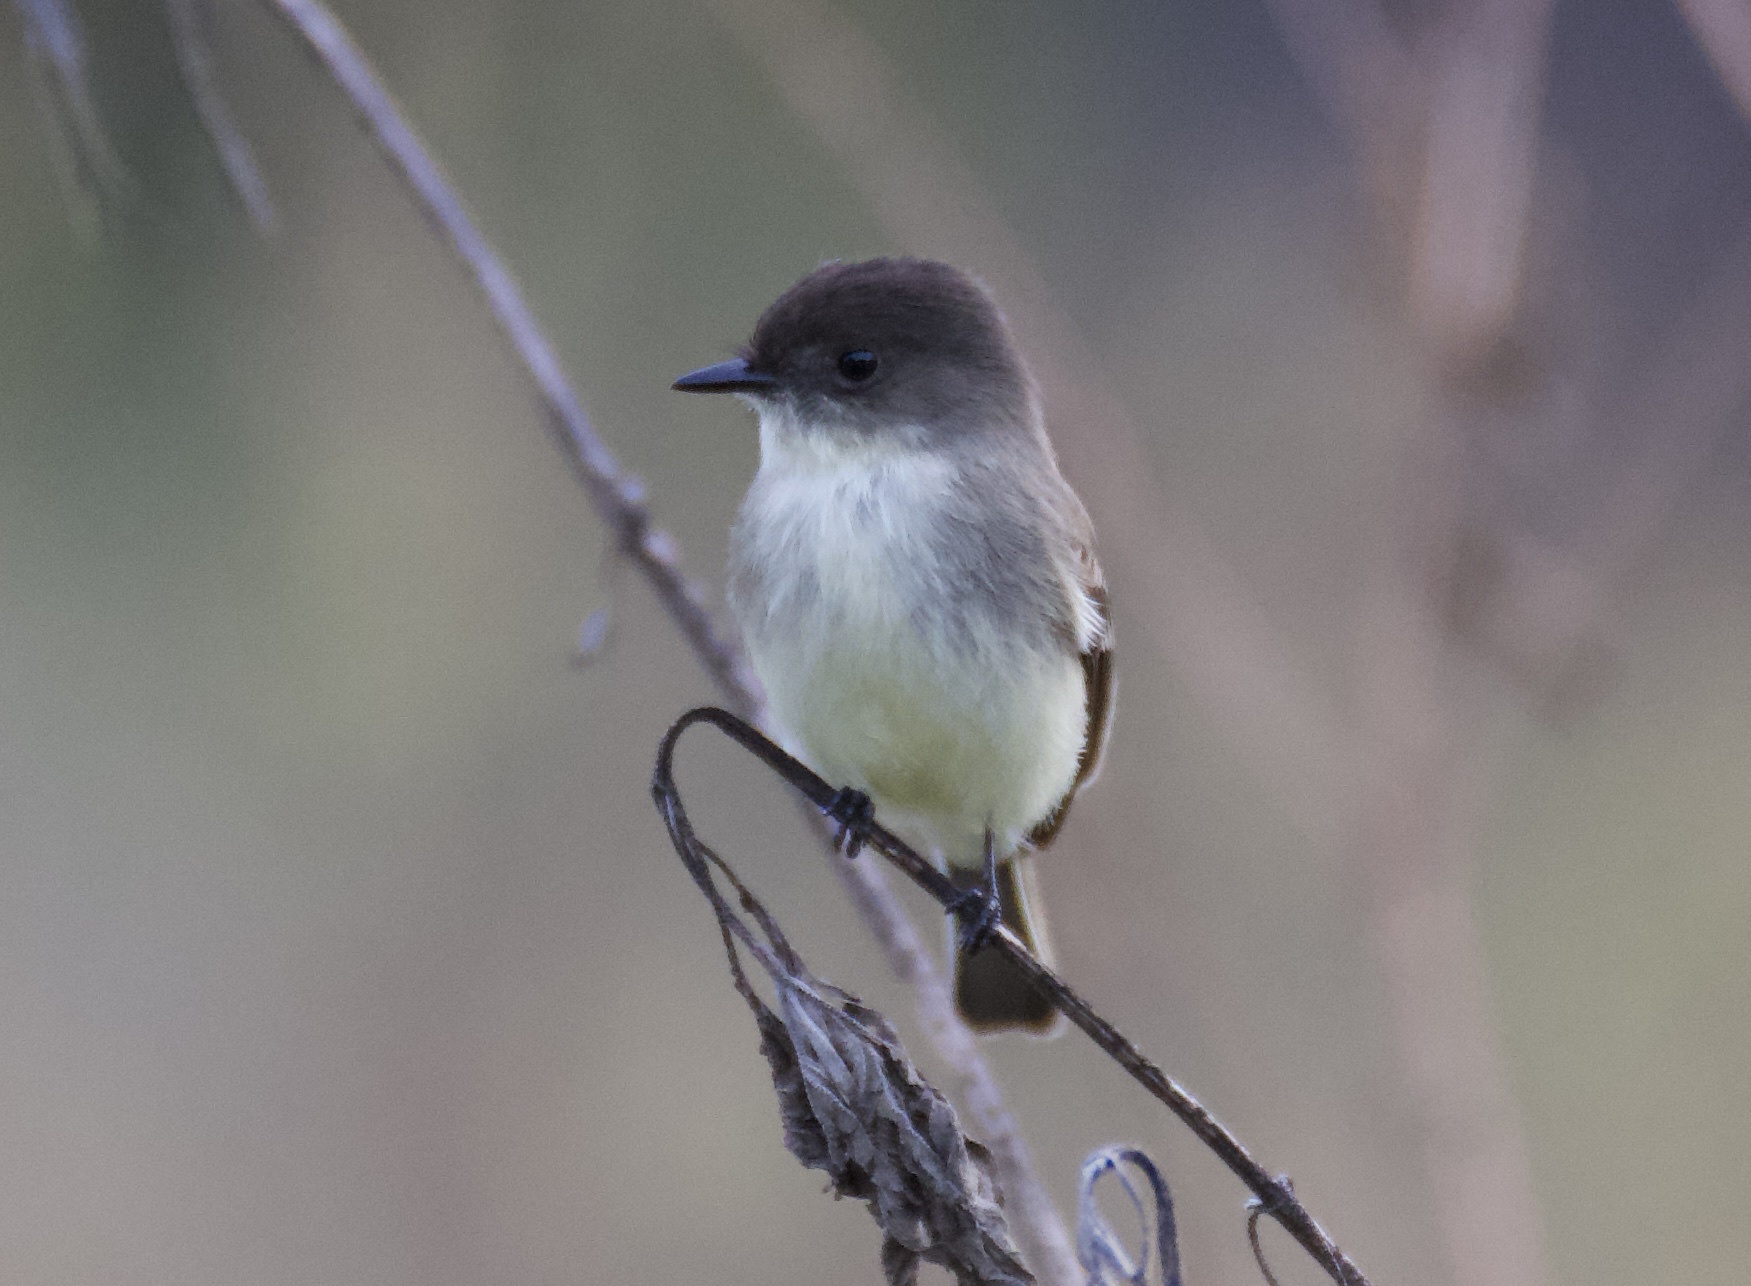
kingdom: Animalia
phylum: Chordata
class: Aves
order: Passeriformes
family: Tyrannidae
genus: Sayornis
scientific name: Sayornis phoebe
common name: Eastern phoebe
